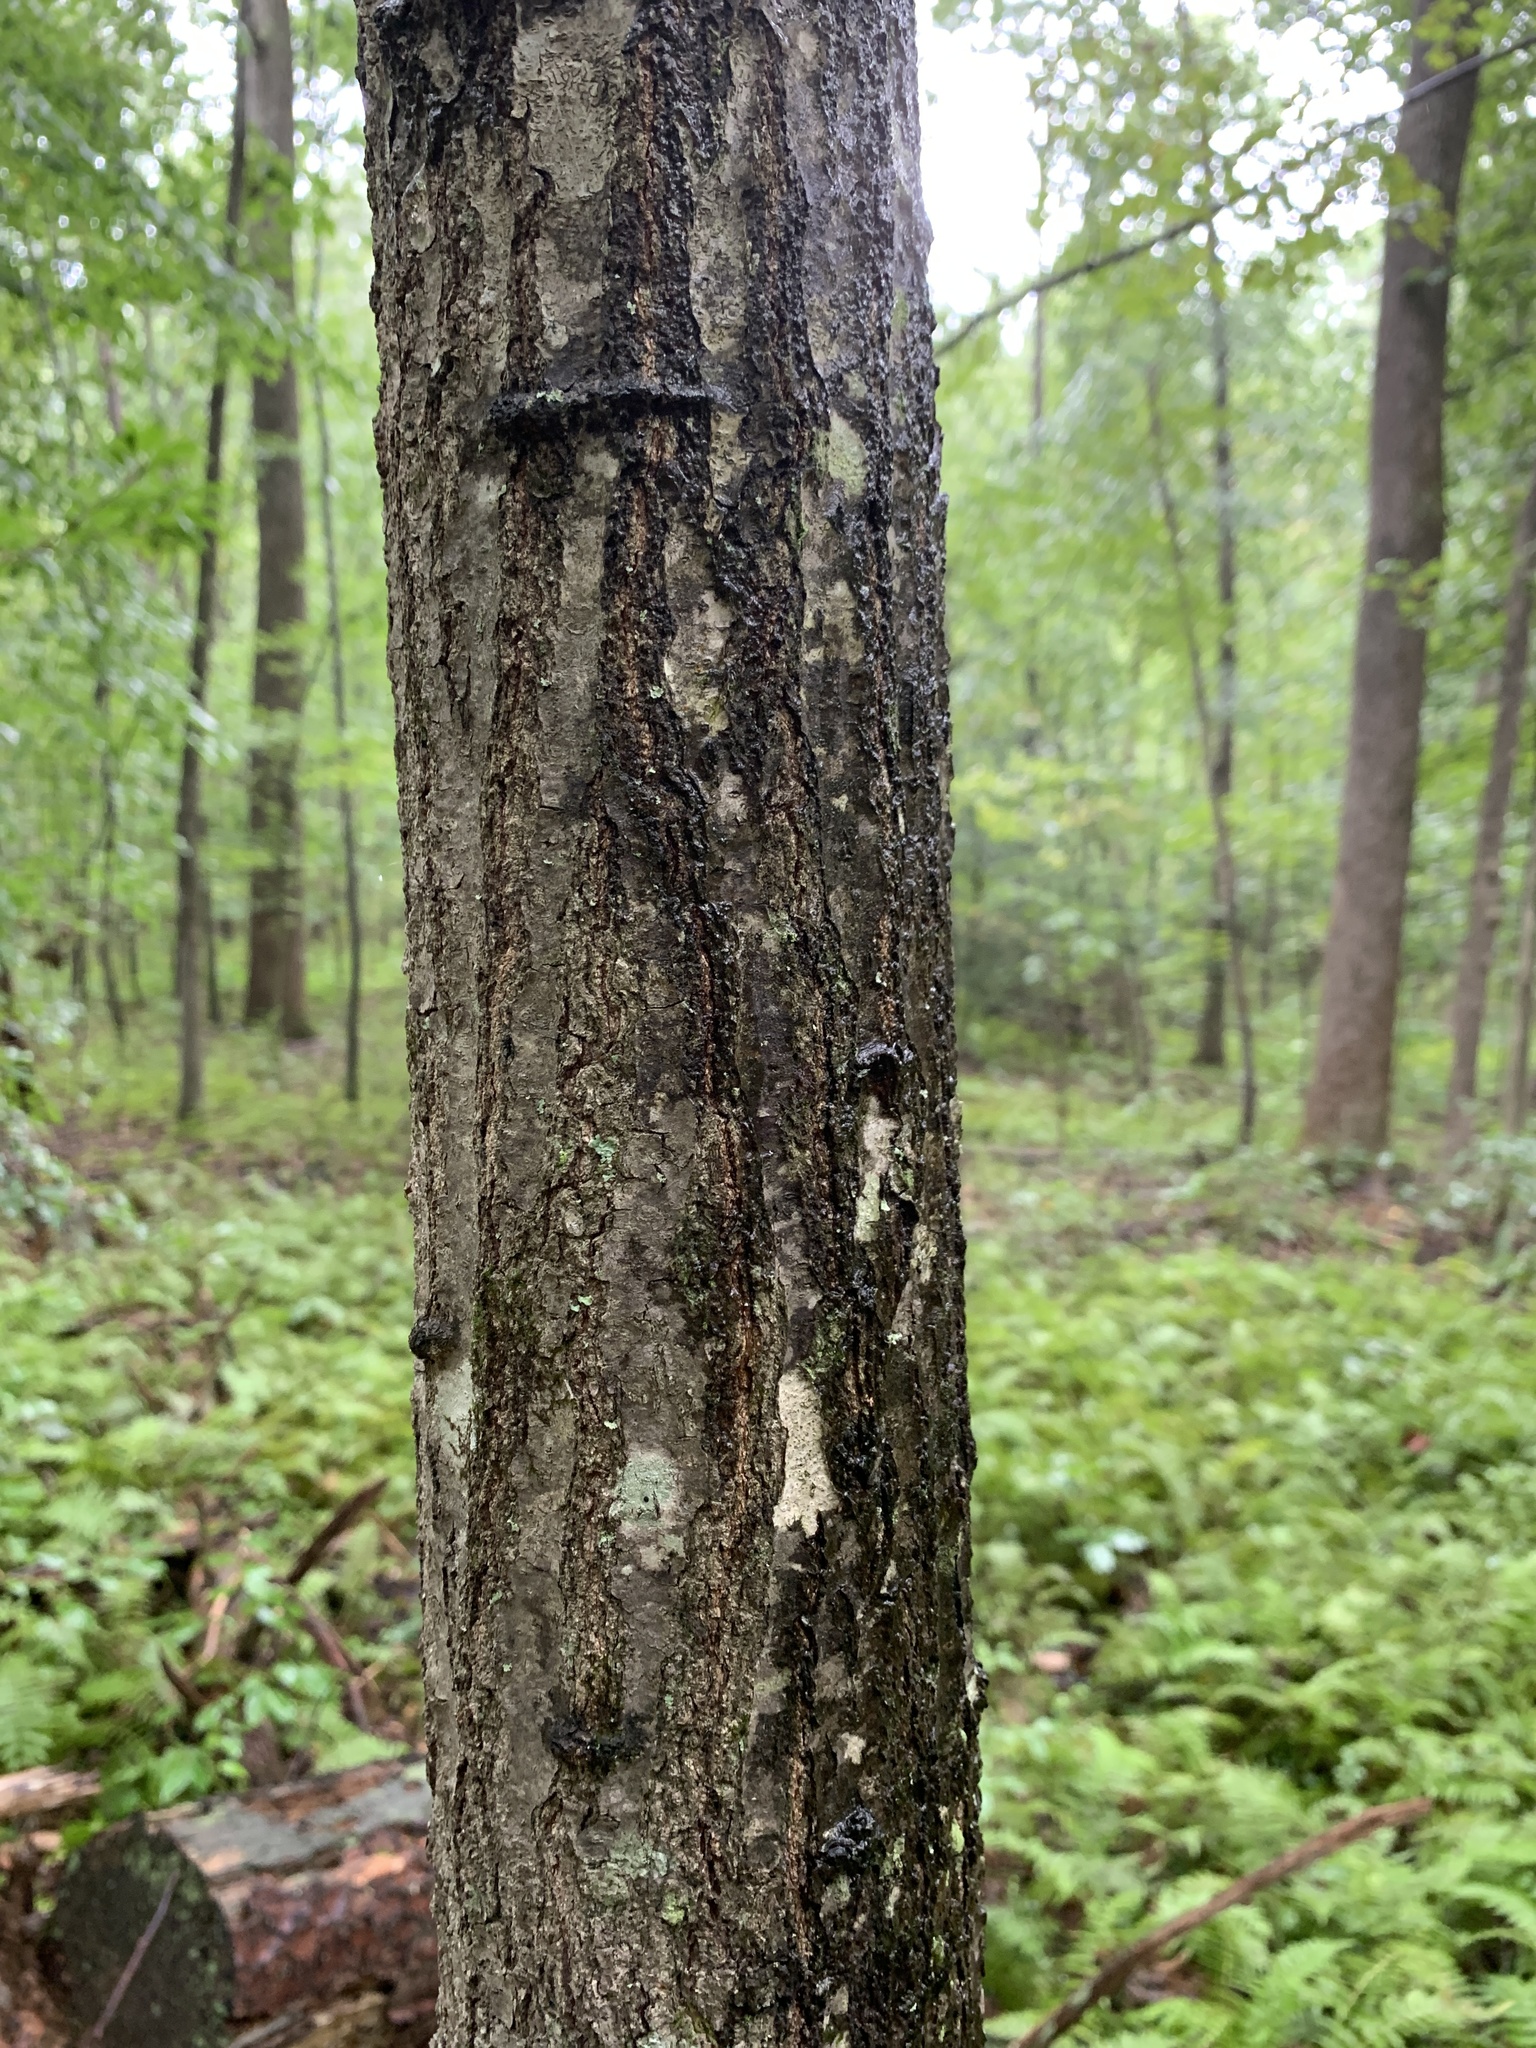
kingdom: Plantae
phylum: Tracheophyta
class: Magnoliopsida
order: Fagales
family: Fagaceae
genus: Quercus
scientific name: Quercus
